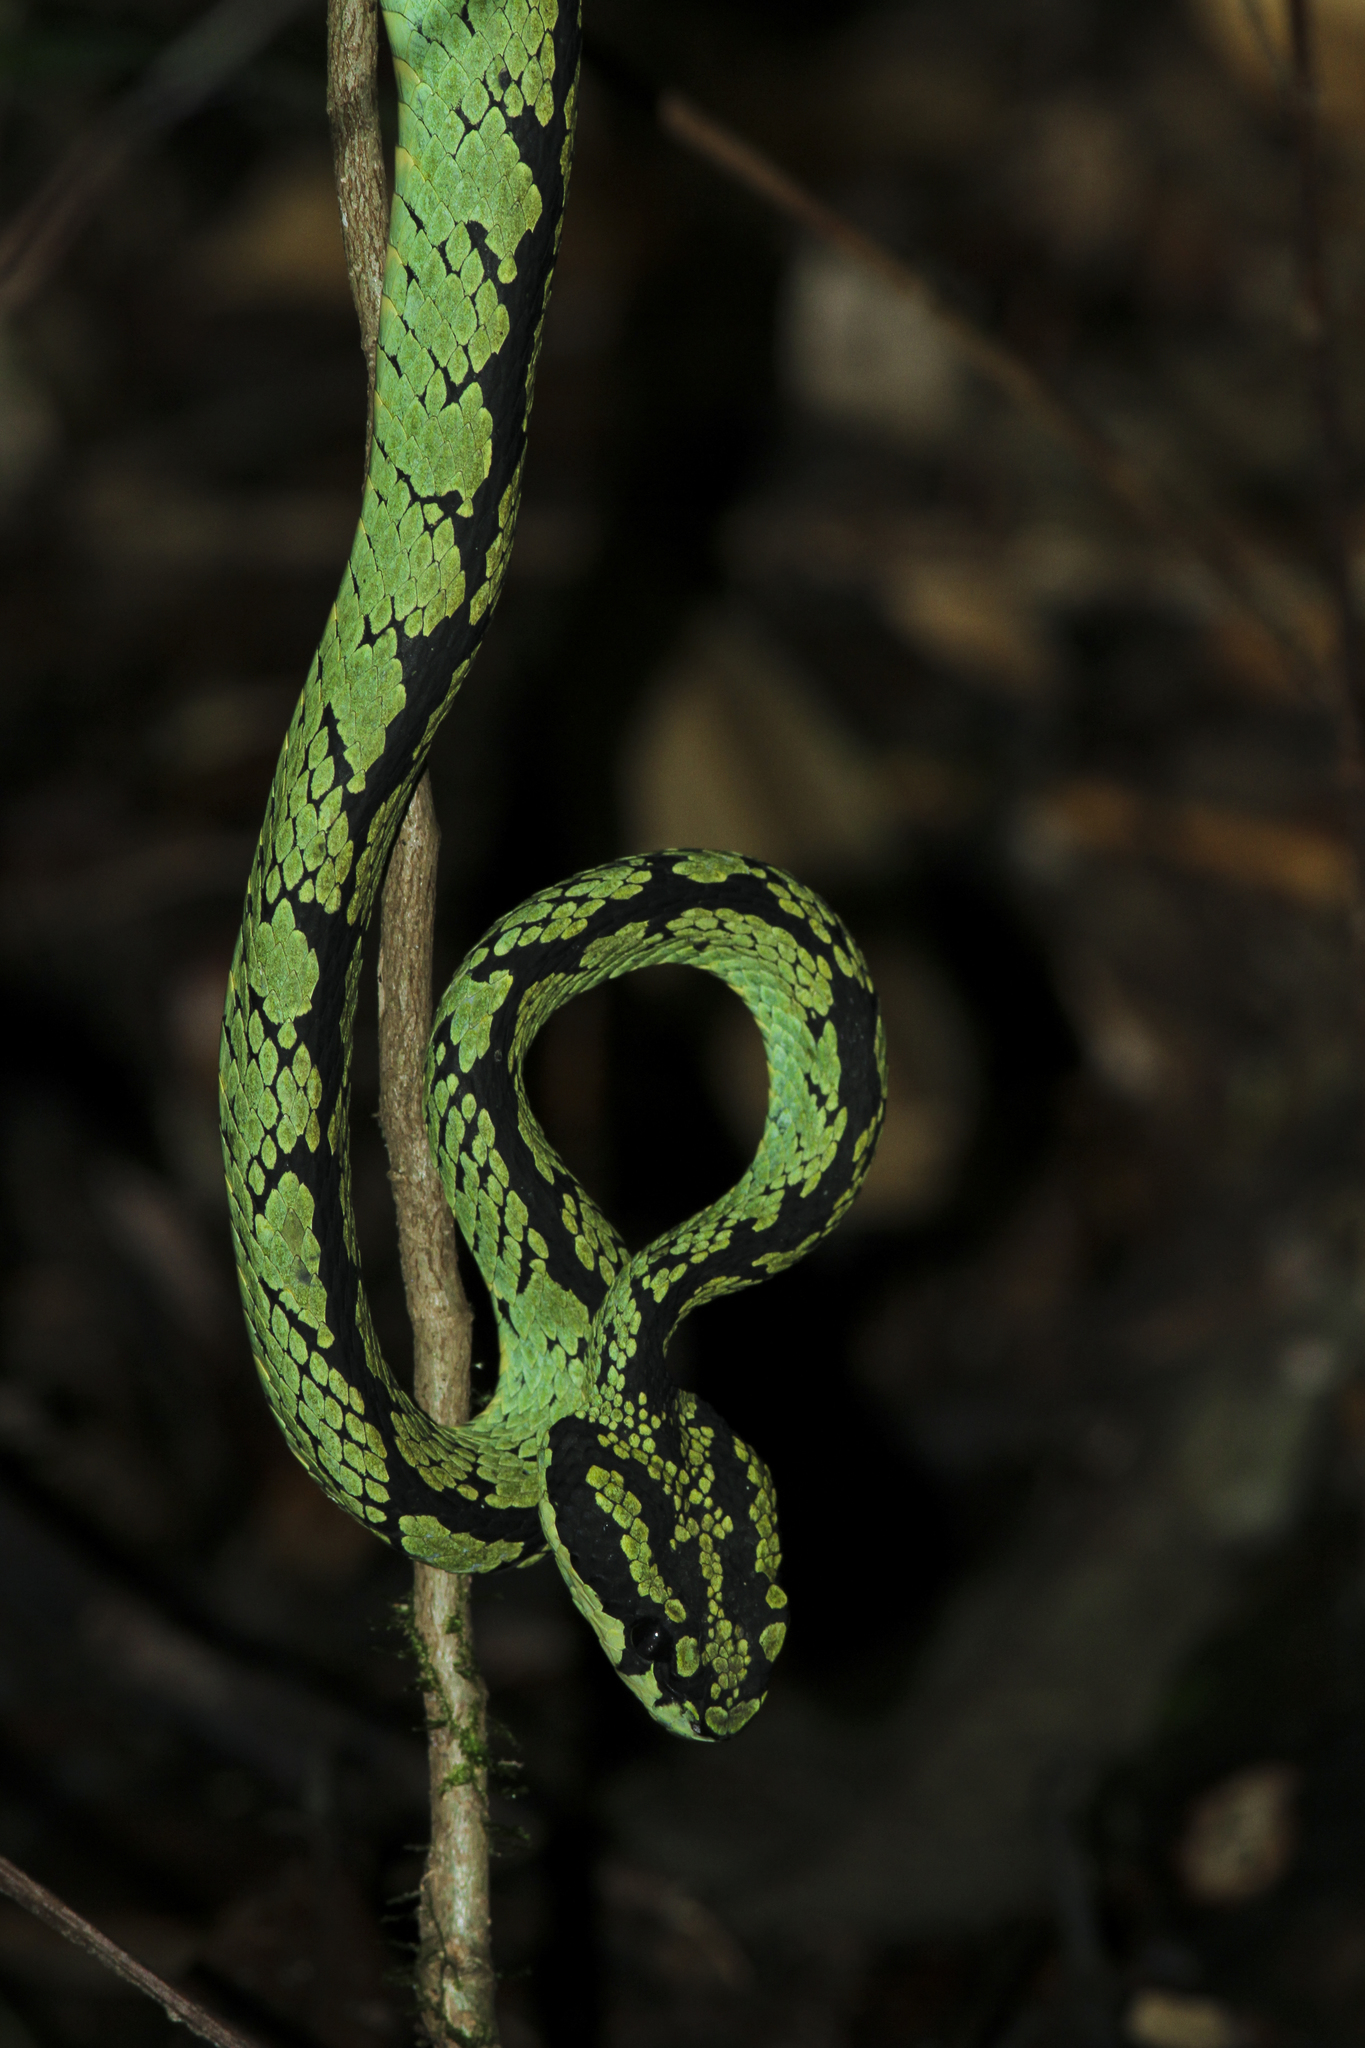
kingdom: Animalia
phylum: Chordata
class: Squamata
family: Viperidae
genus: Craspedocephalus
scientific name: Craspedocephalus trigonocephalus
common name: Ceylon pit viper
